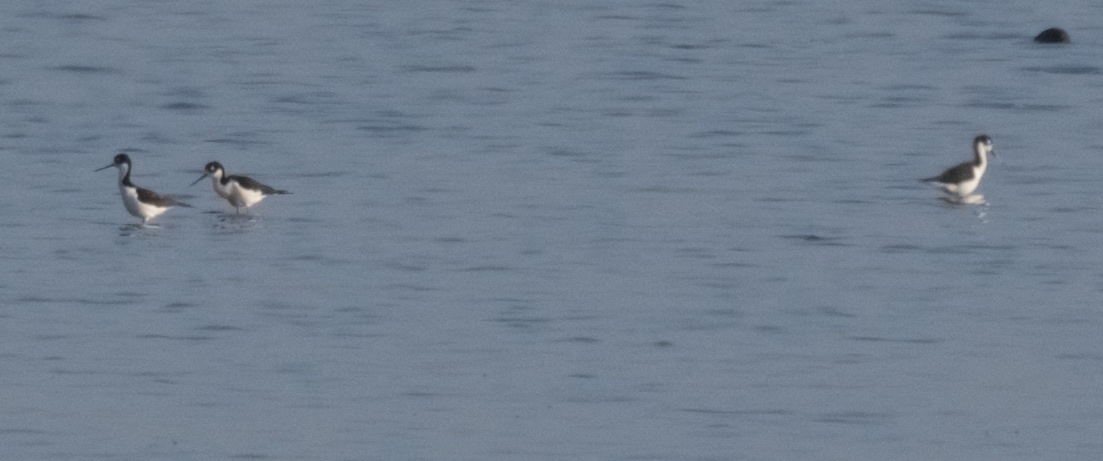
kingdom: Animalia
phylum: Chordata
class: Aves
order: Charadriiformes
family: Recurvirostridae
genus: Himantopus
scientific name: Himantopus mexicanus
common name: Black-necked stilt
